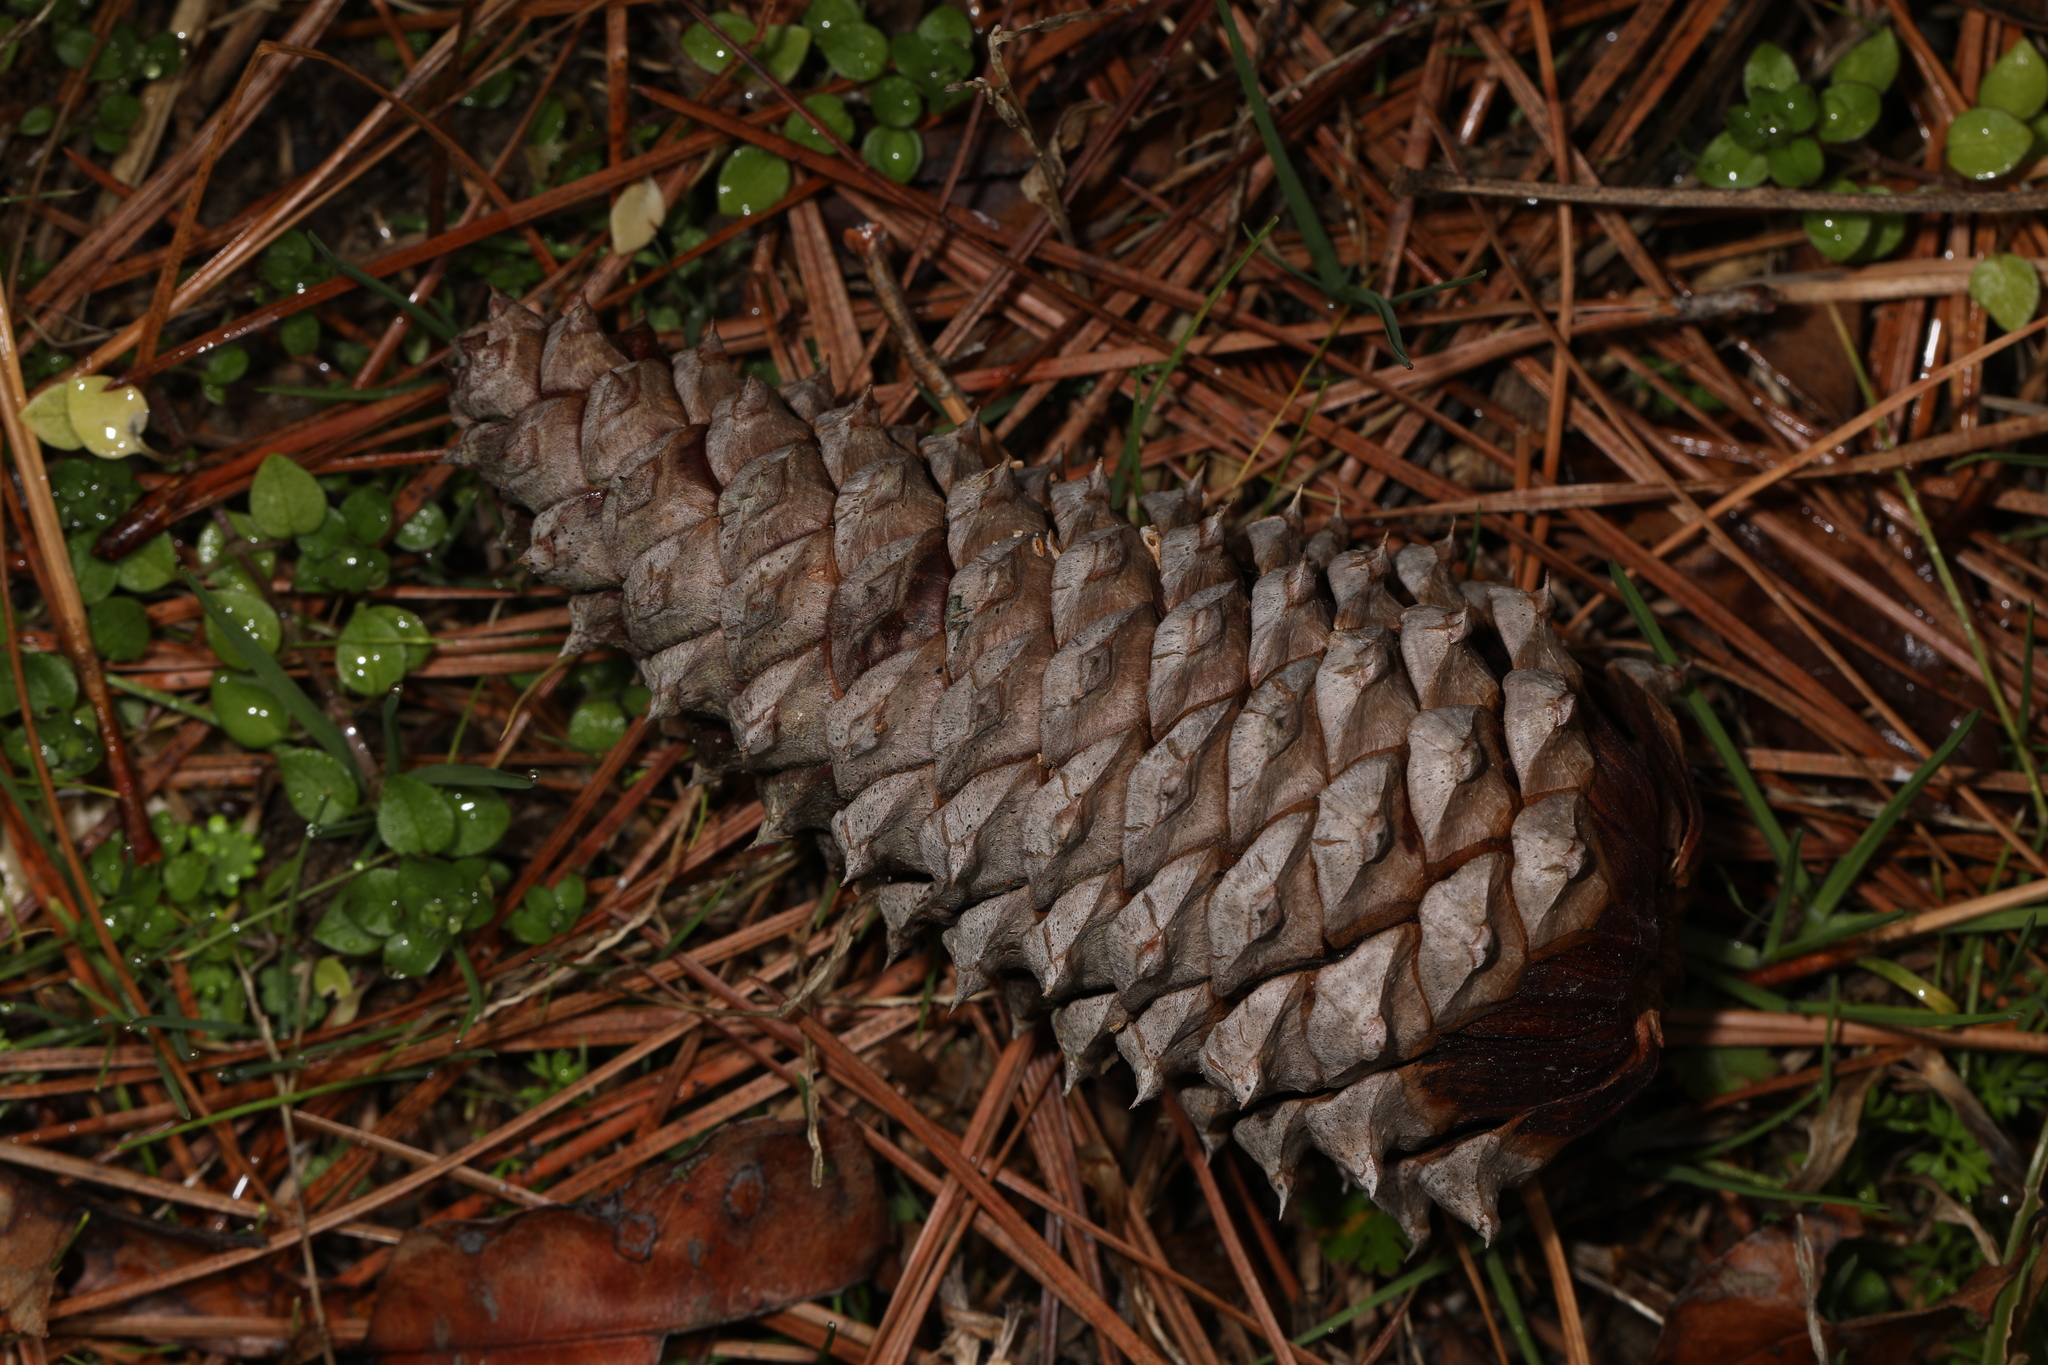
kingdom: Plantae
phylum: Tracheophyta
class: Pinopsida
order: Pinales
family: Pinaceae
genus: Pinus
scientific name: Pinus taeda
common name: Loblolly pine
